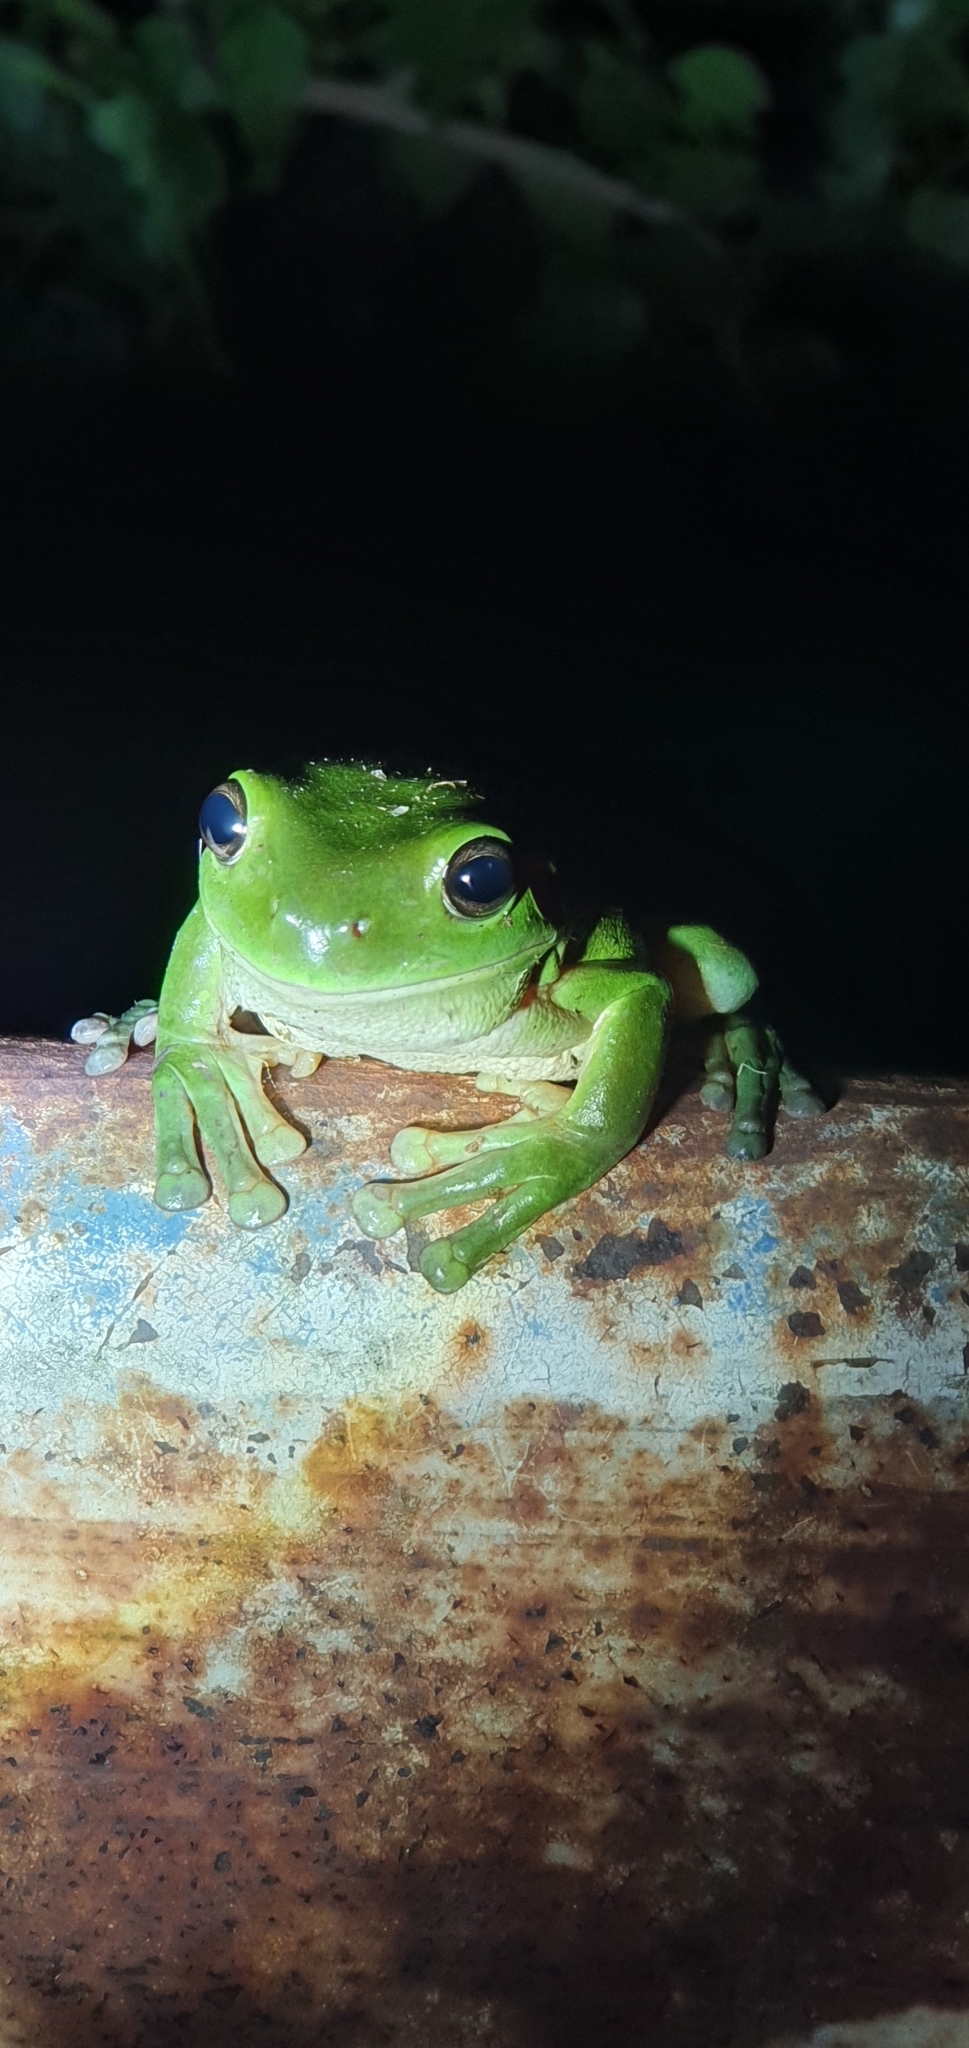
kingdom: Animalia
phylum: Chordata
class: Amphibia
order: Anura
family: Pelodryadidae
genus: Ranoidea
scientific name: Ranoidea caerulea
